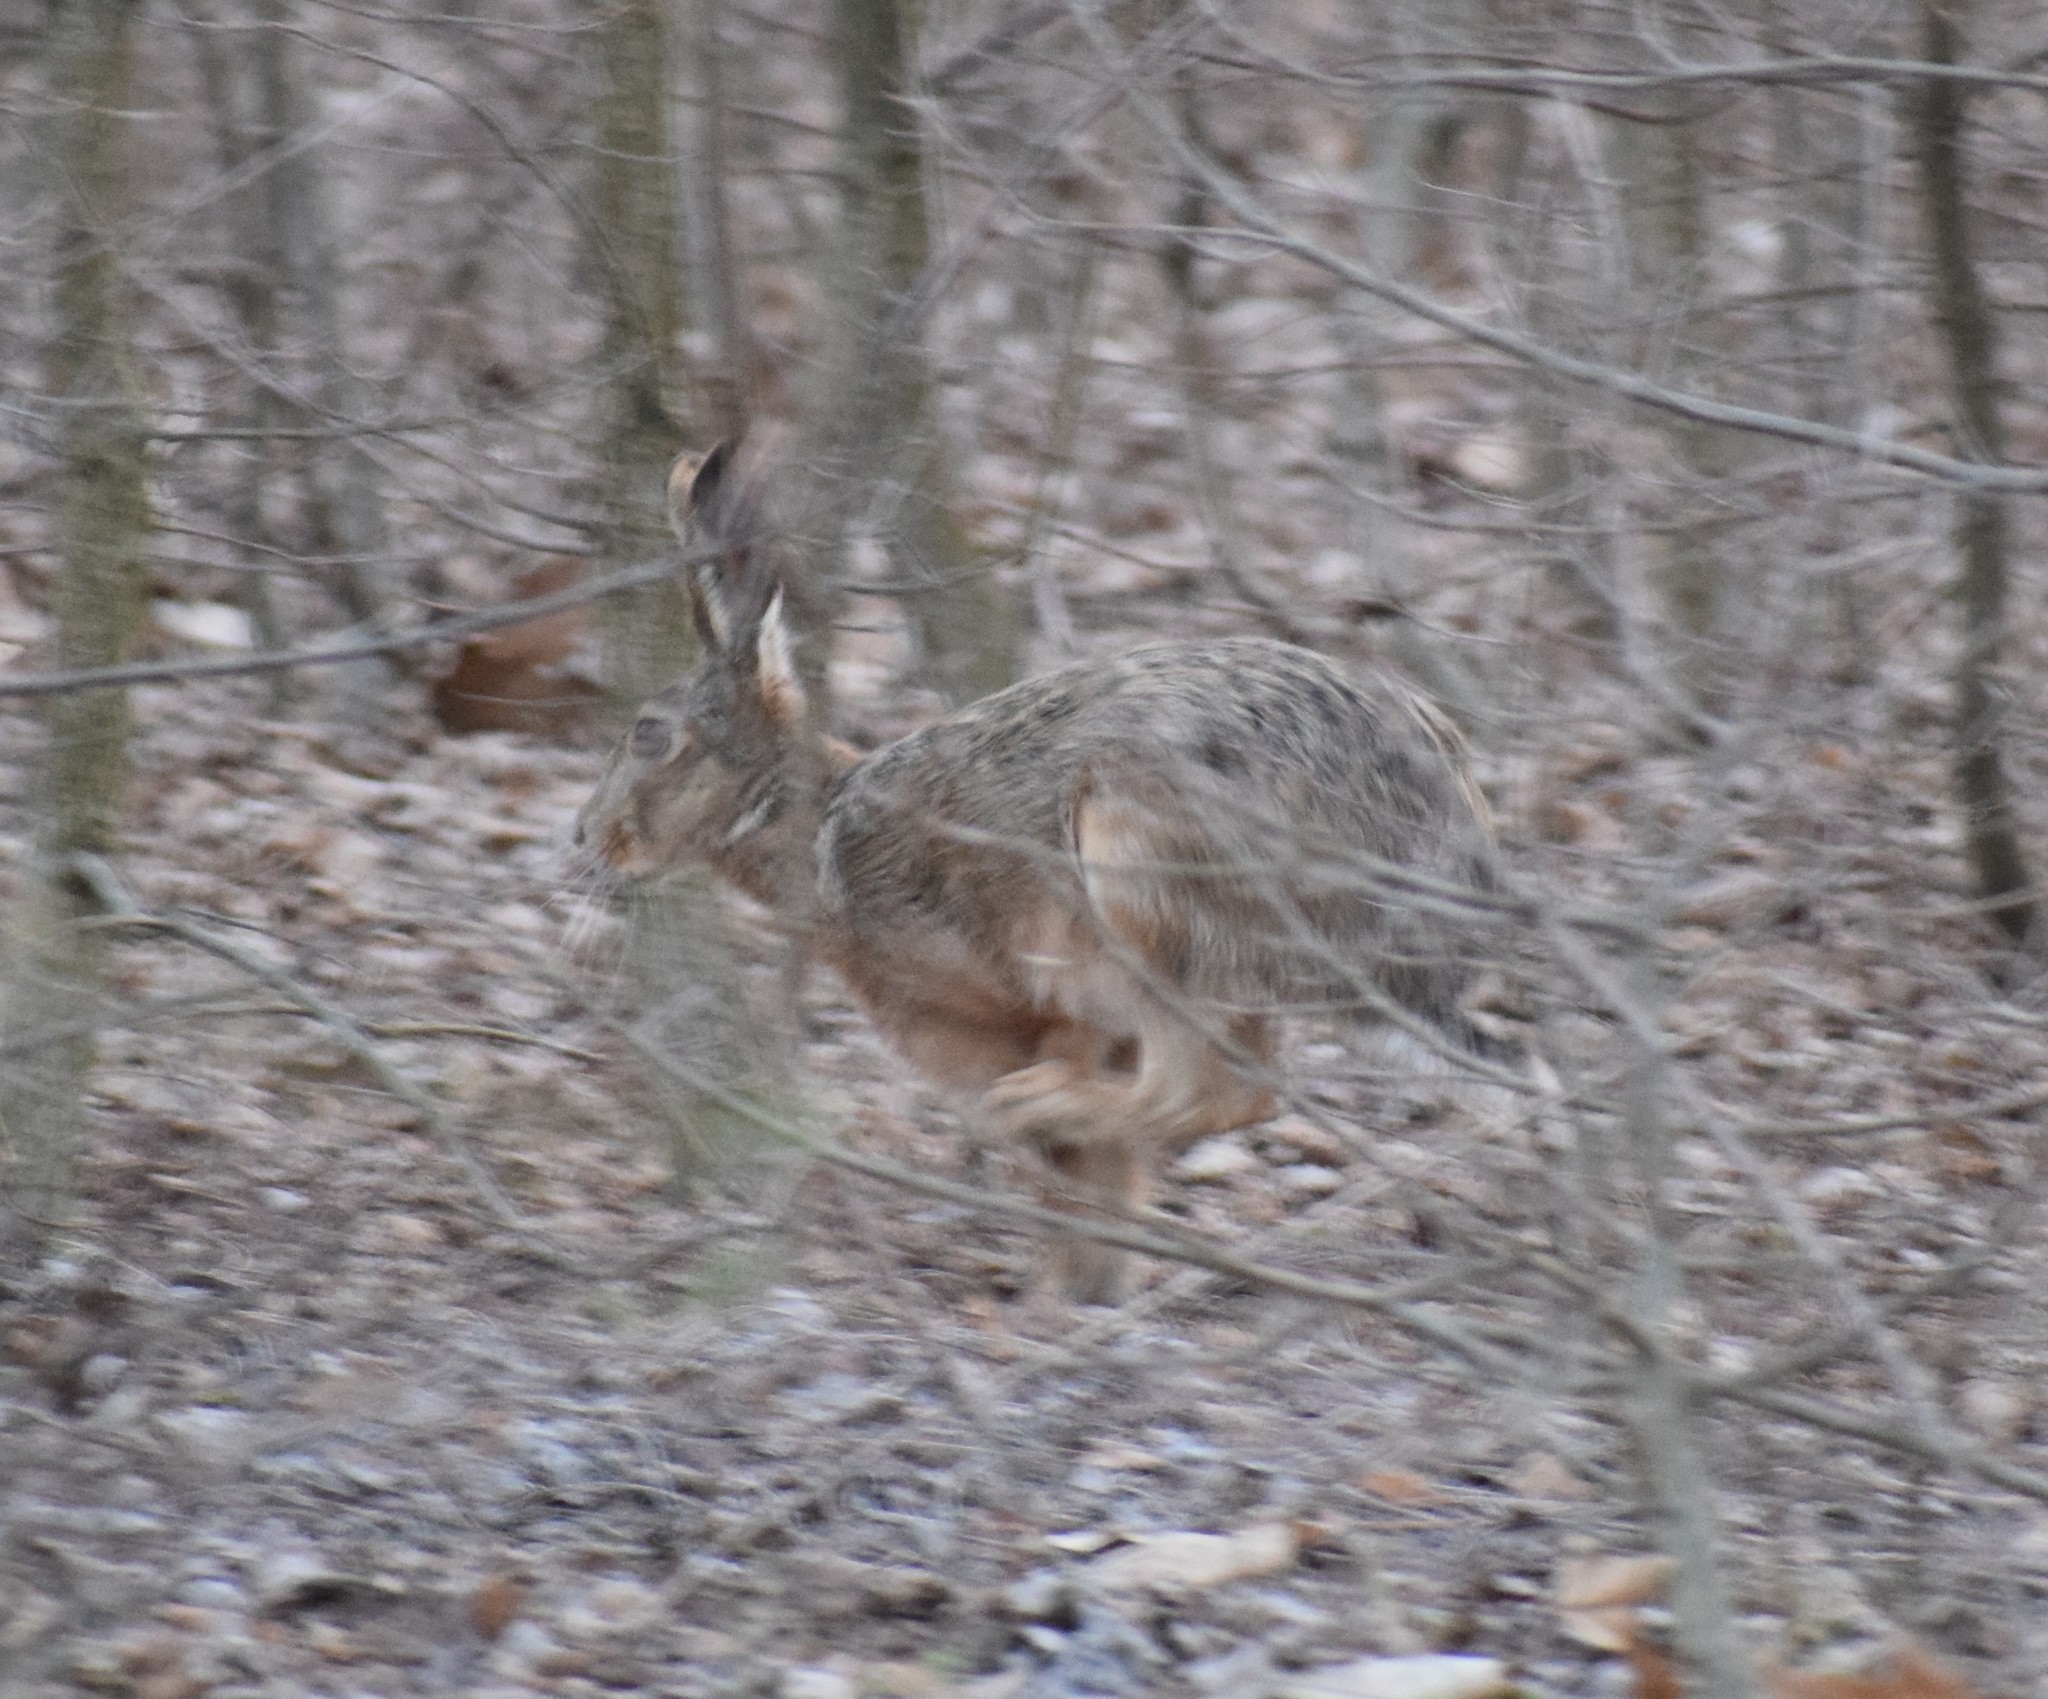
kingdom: Animalia
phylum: Chordata
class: Mammalia
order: Lagomorpha
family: Leporidae
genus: Lepus
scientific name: Lepus europaeus
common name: European hare
